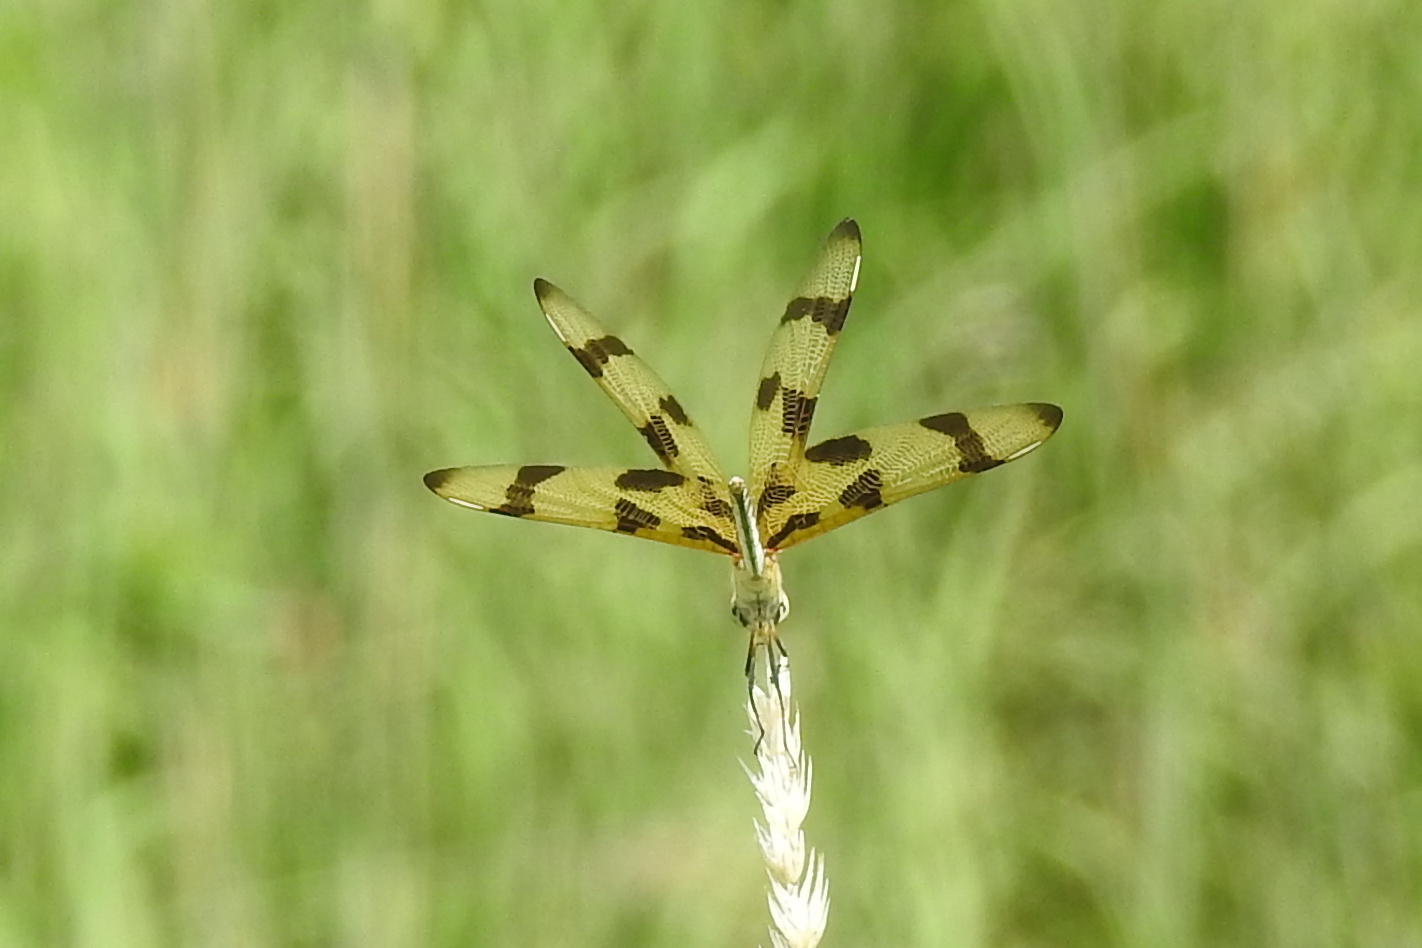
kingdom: Animalia
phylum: Arthropoda
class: Insecta
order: Odonata
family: Libellulidae
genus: Celithemis
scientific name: Celithemis eponina
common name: Halloween pennant
